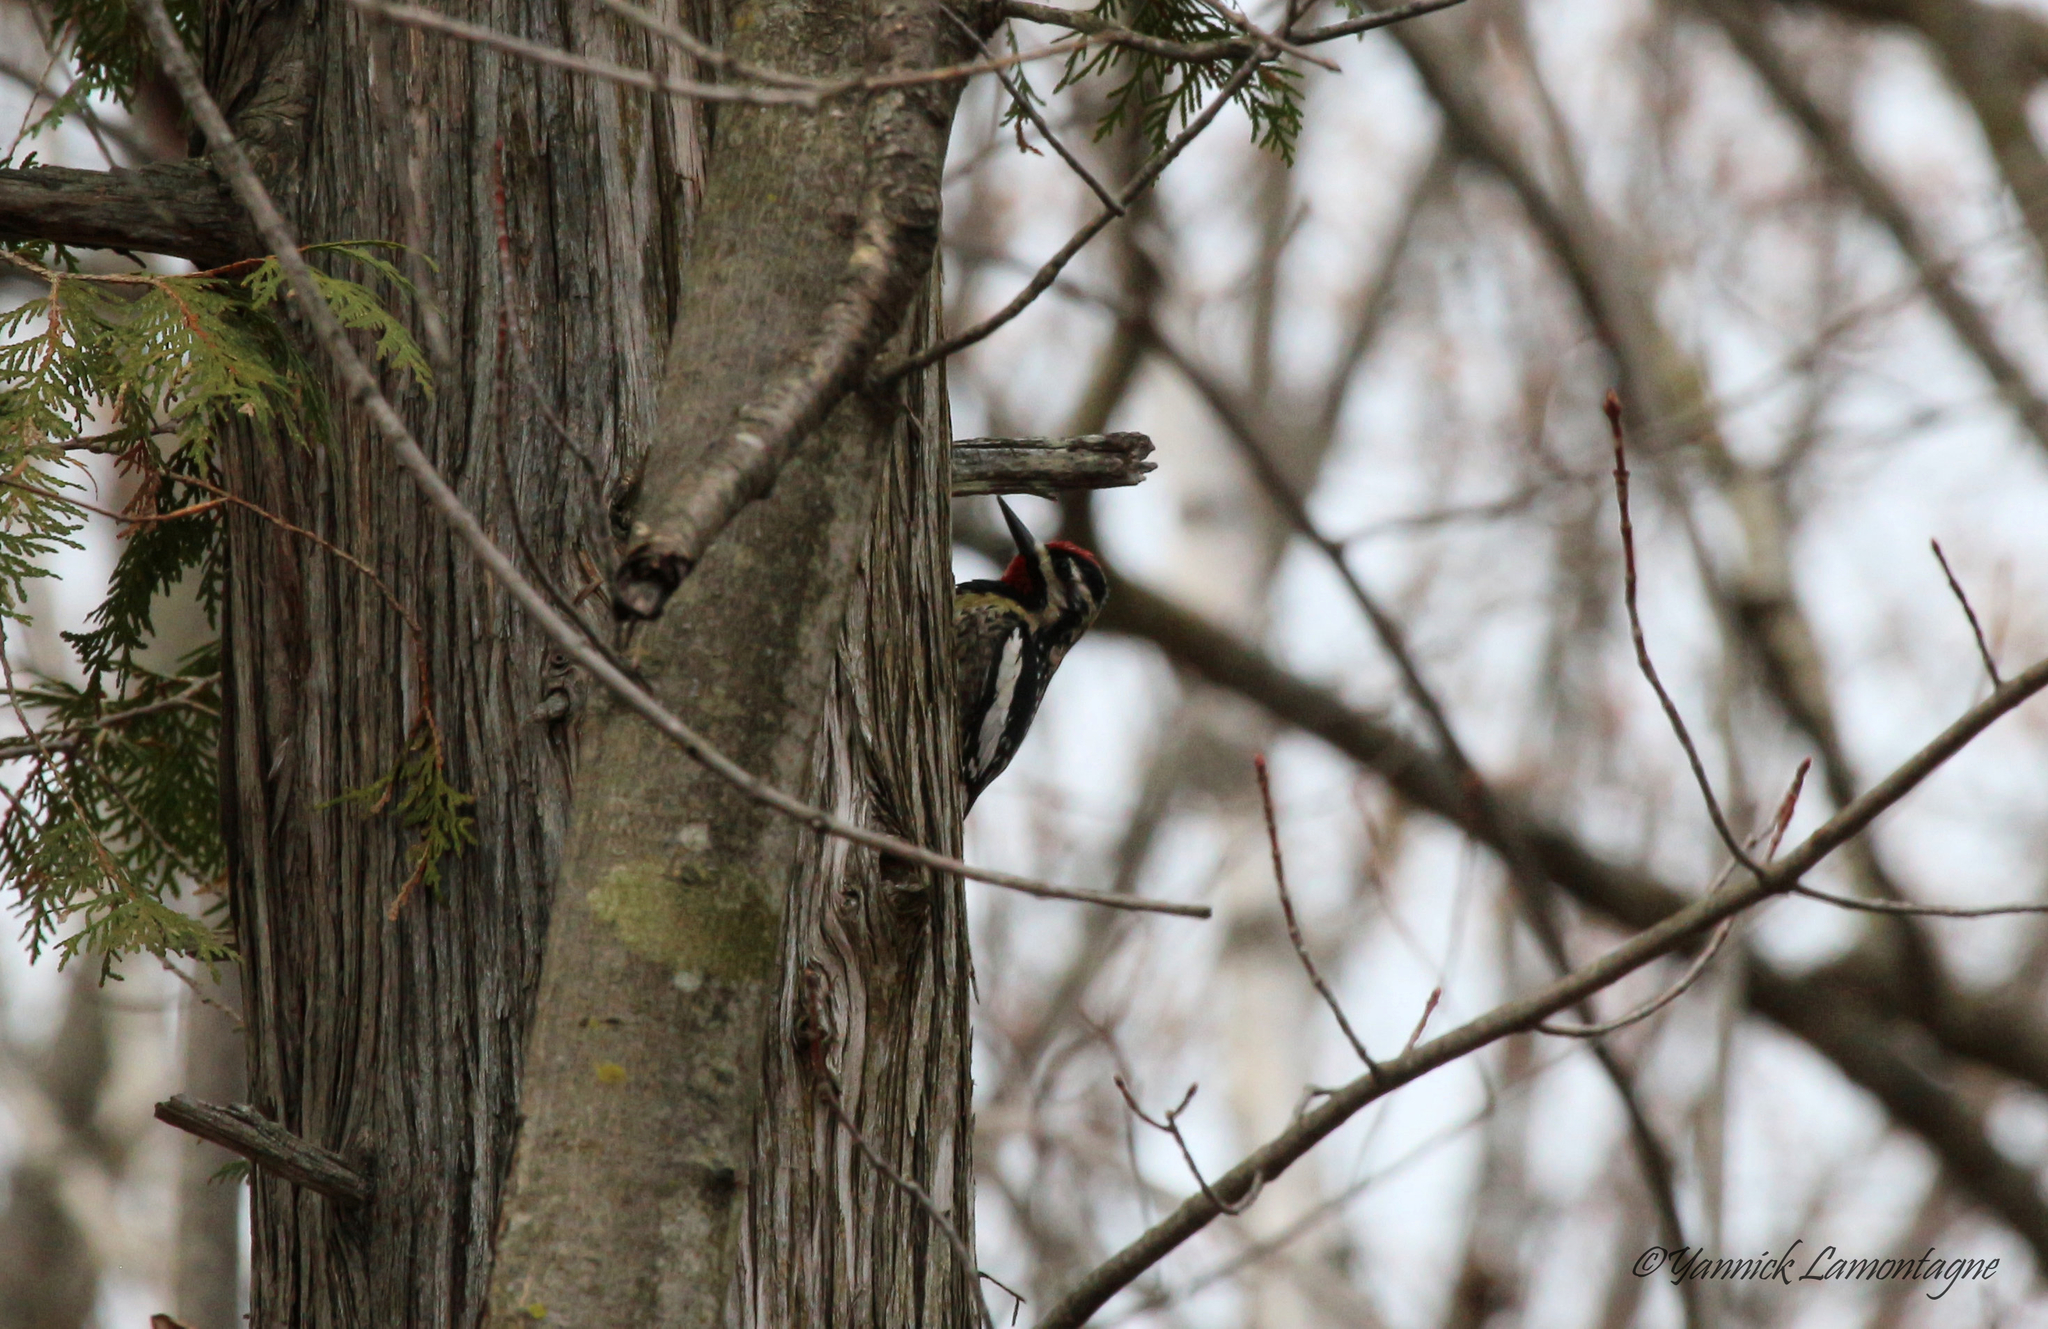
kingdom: Animalia
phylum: Chordata
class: Aves
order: Piciformes
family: Picidae
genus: Sphyrapicus
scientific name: Sphyrapicus varius
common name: Yellow-bellied sapsucker
